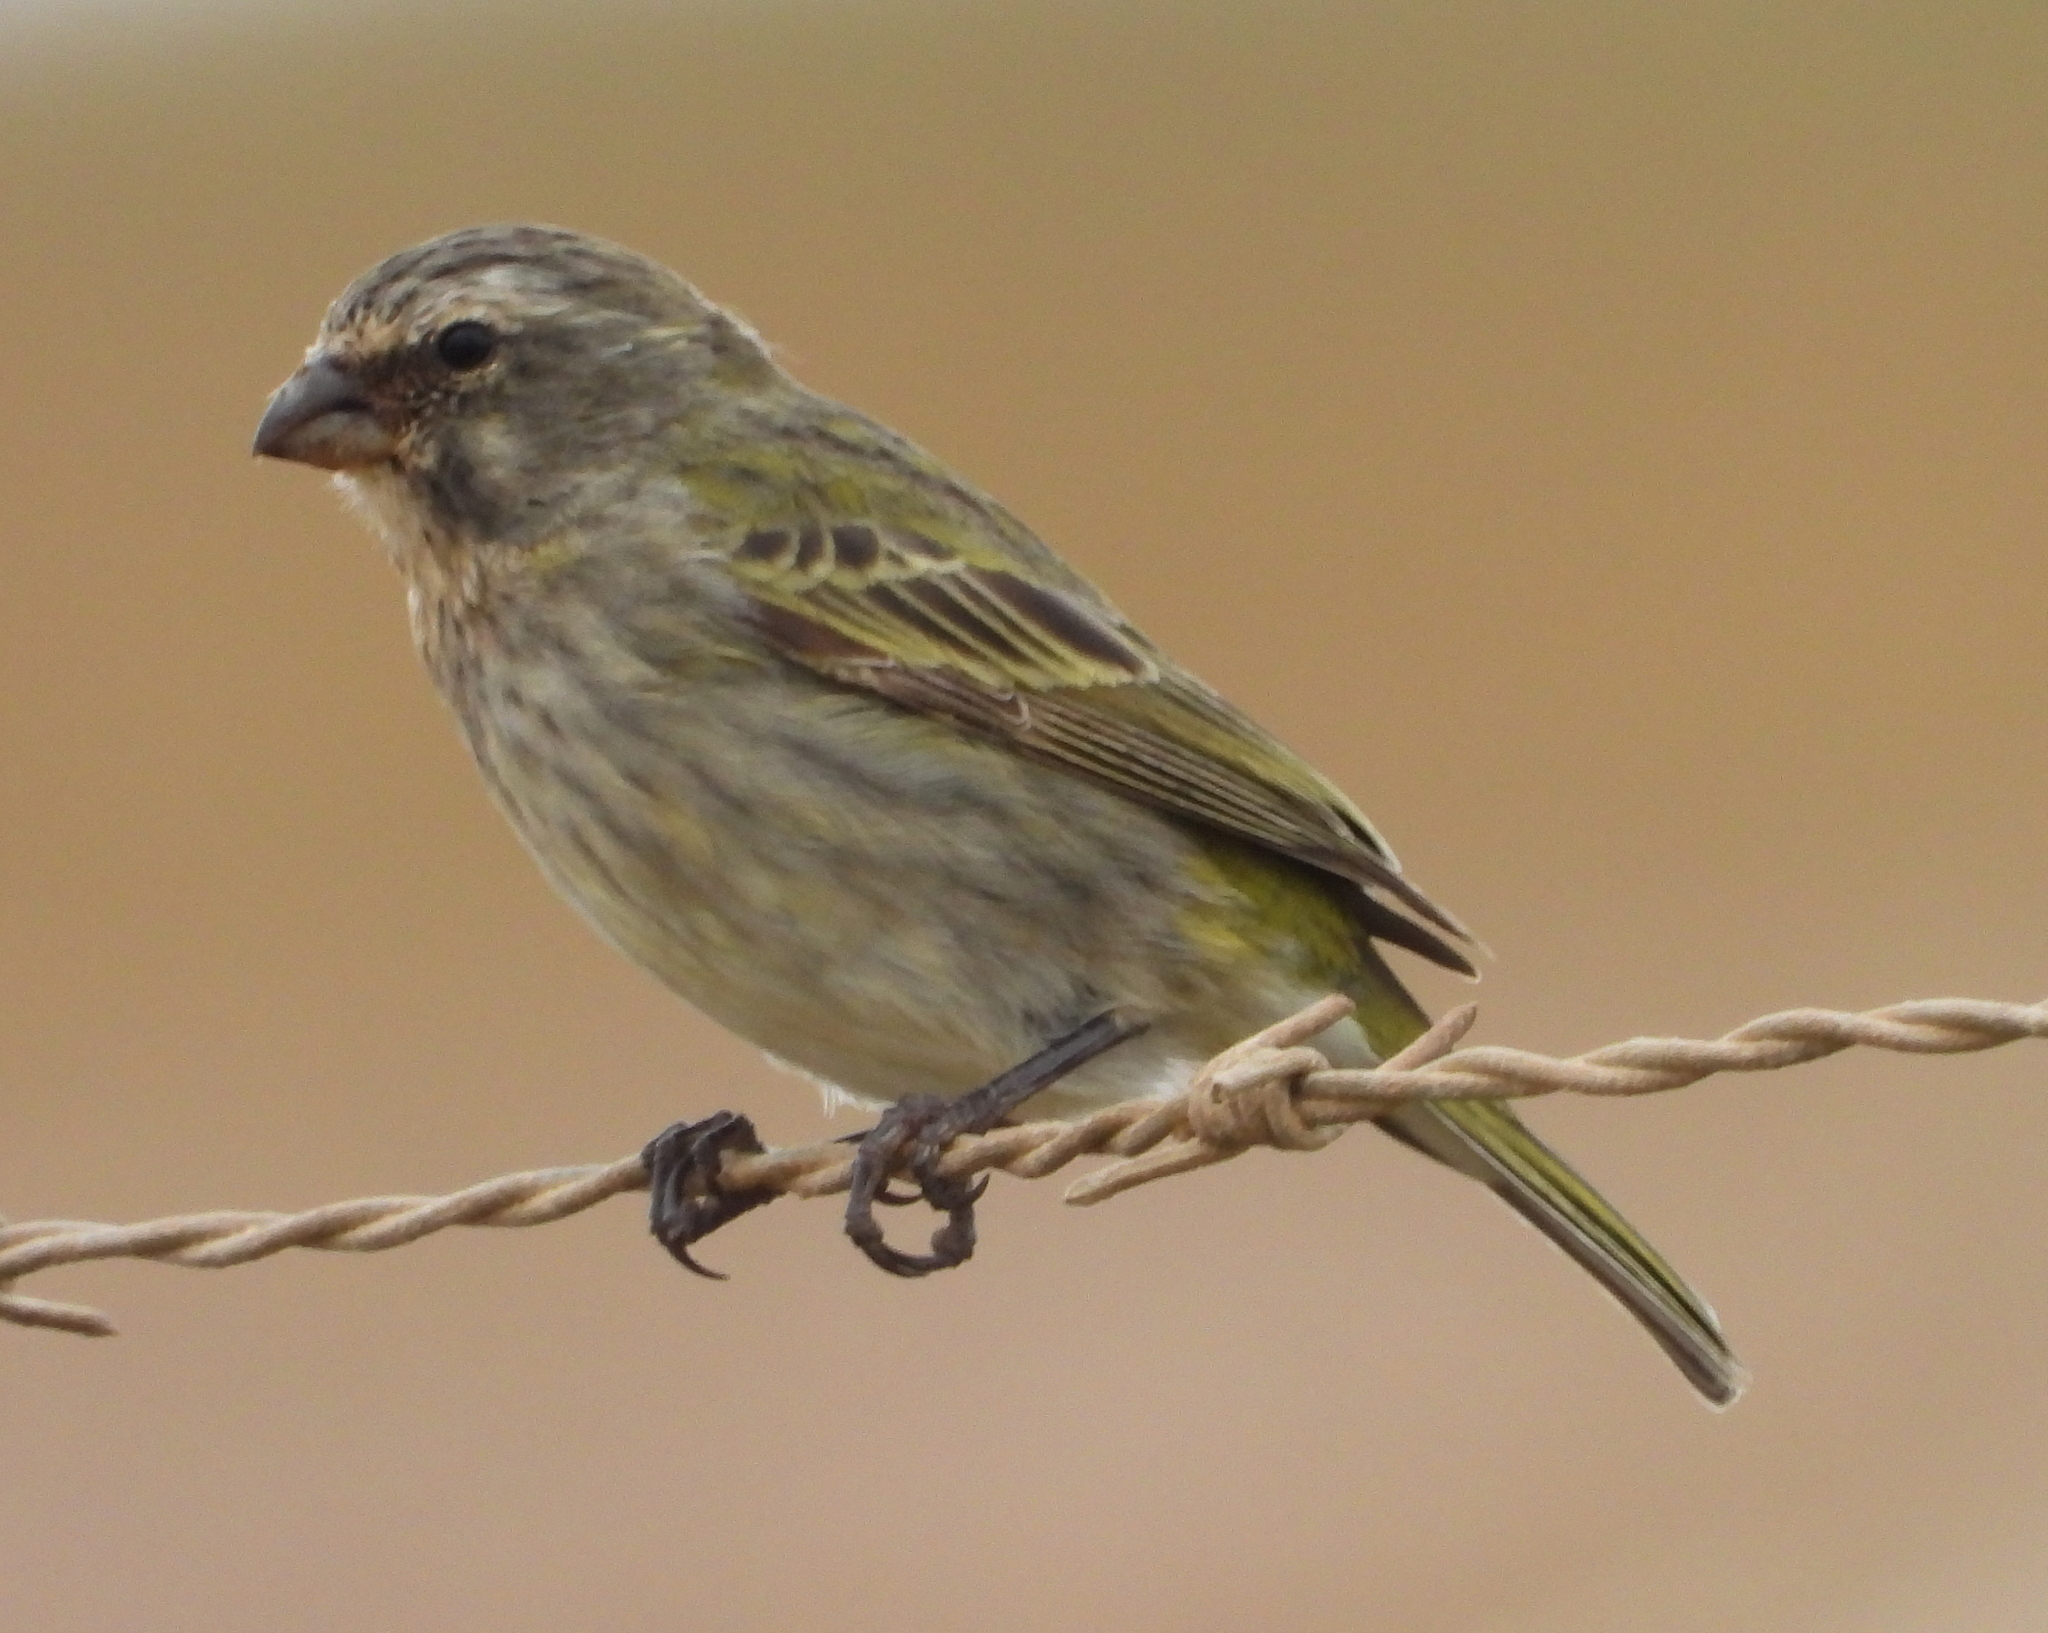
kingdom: Animalia
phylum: Chordata
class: Aves
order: Passeriformes
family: Fringillidae
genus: Crithagra
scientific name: Crithagra flaviventris
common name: Yellow canary
